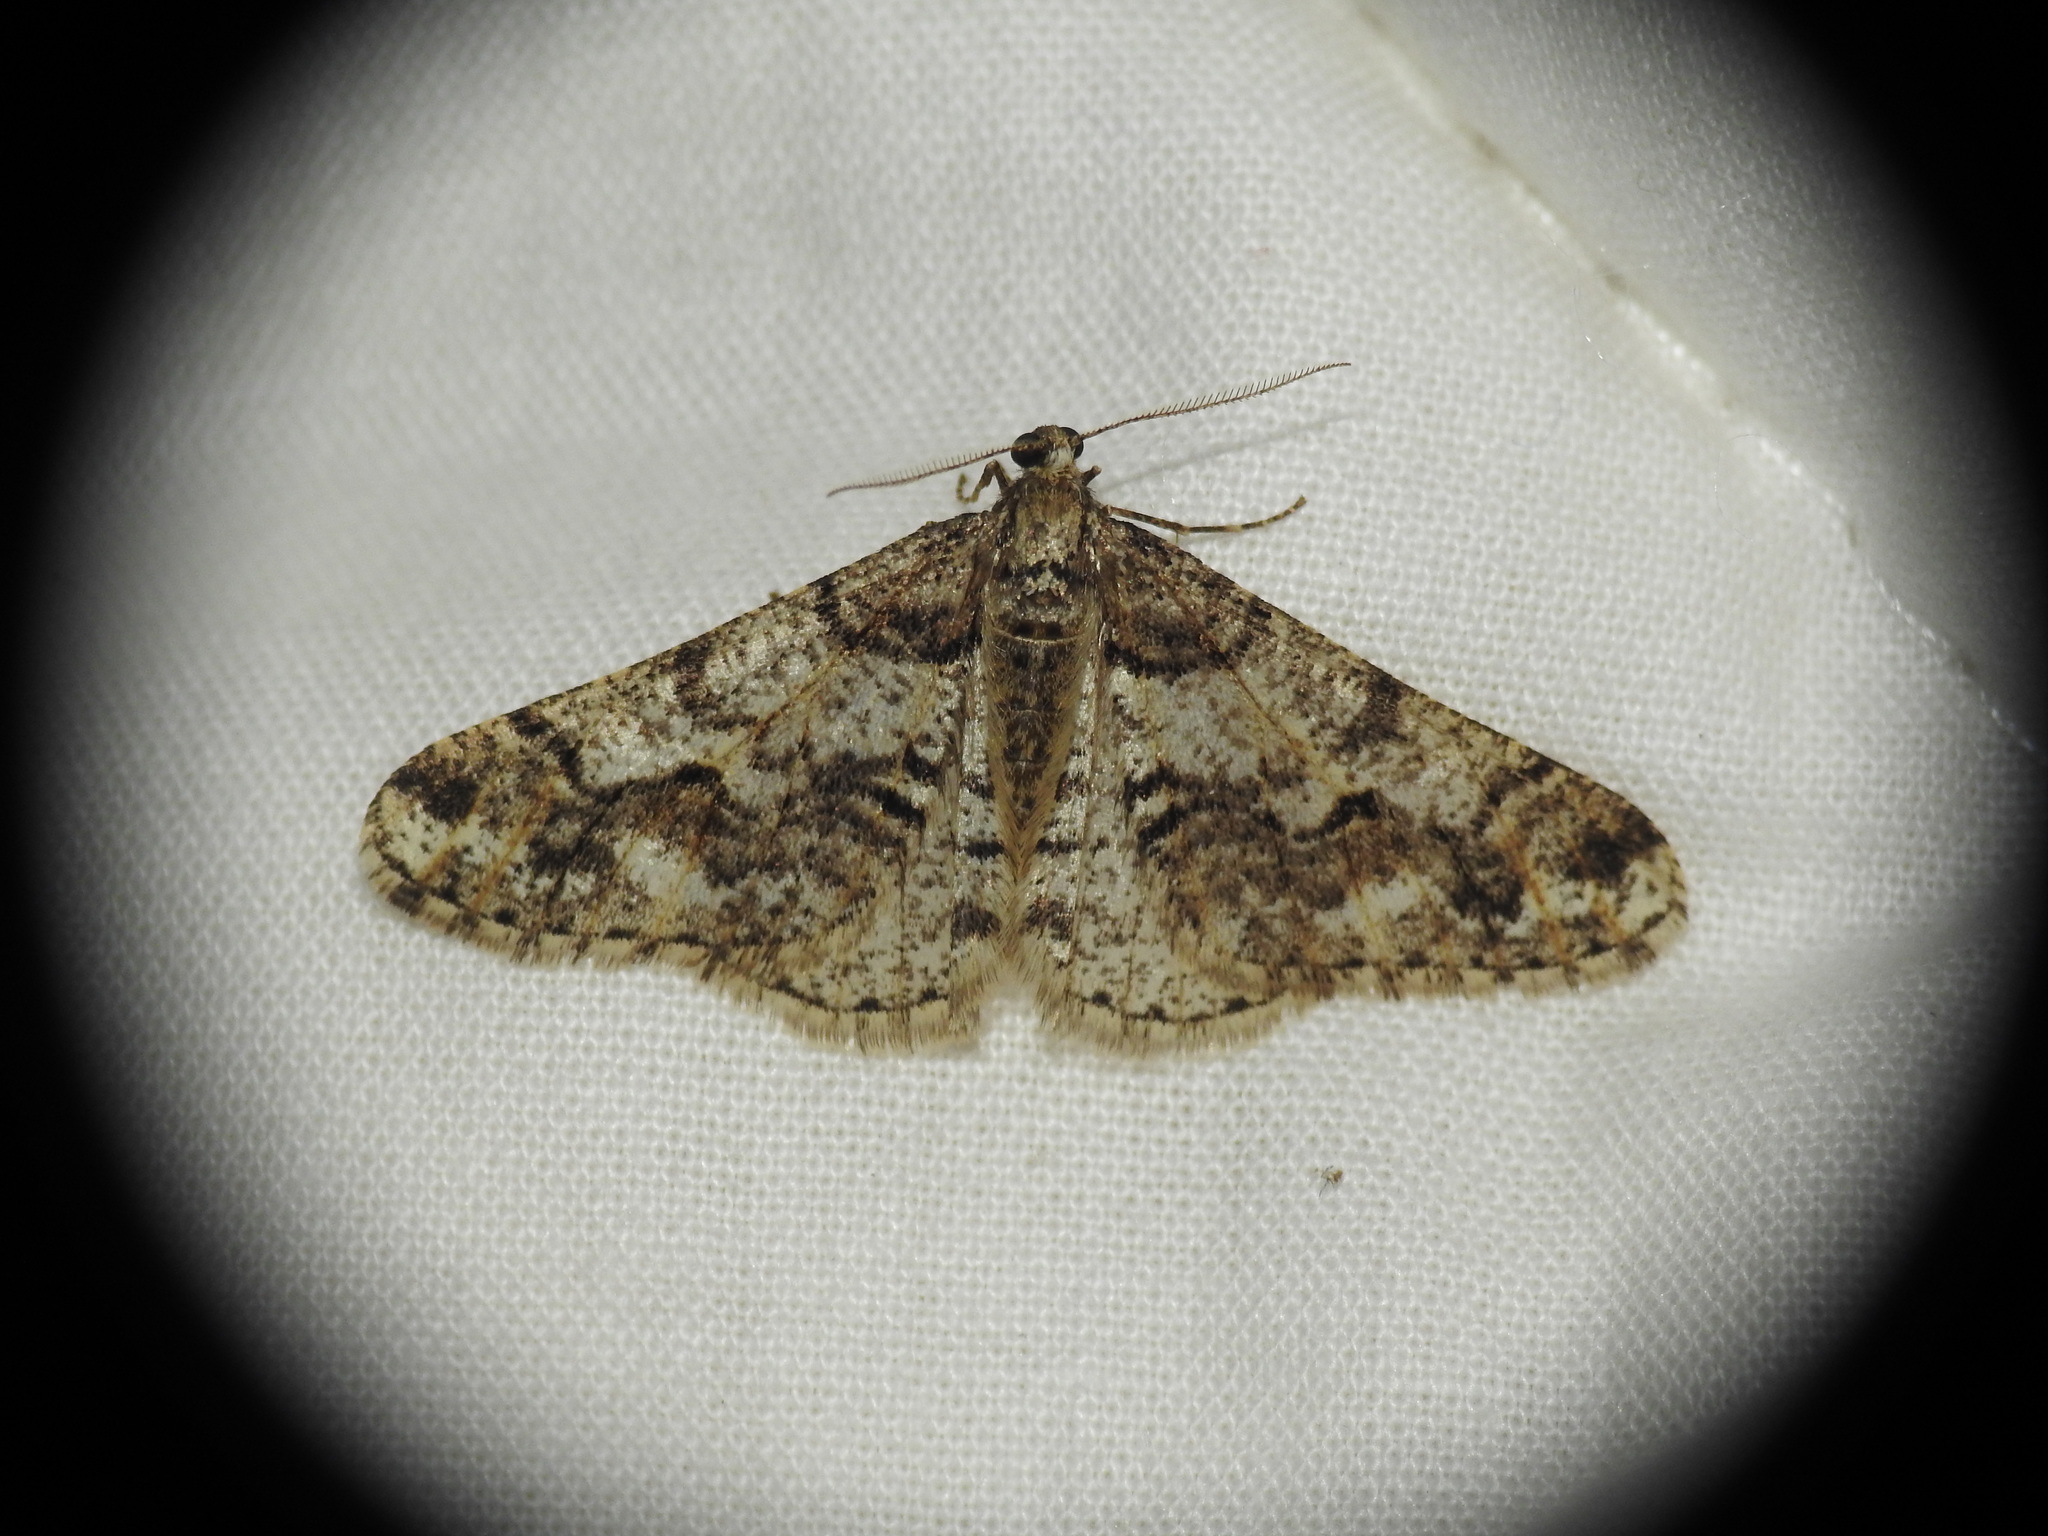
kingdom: Animalia
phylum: Arthropoda
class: Insecta
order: Lepidoptera
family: Geometridae
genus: Agriopis
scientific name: Agriopis leucophaearia
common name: Spring usher
